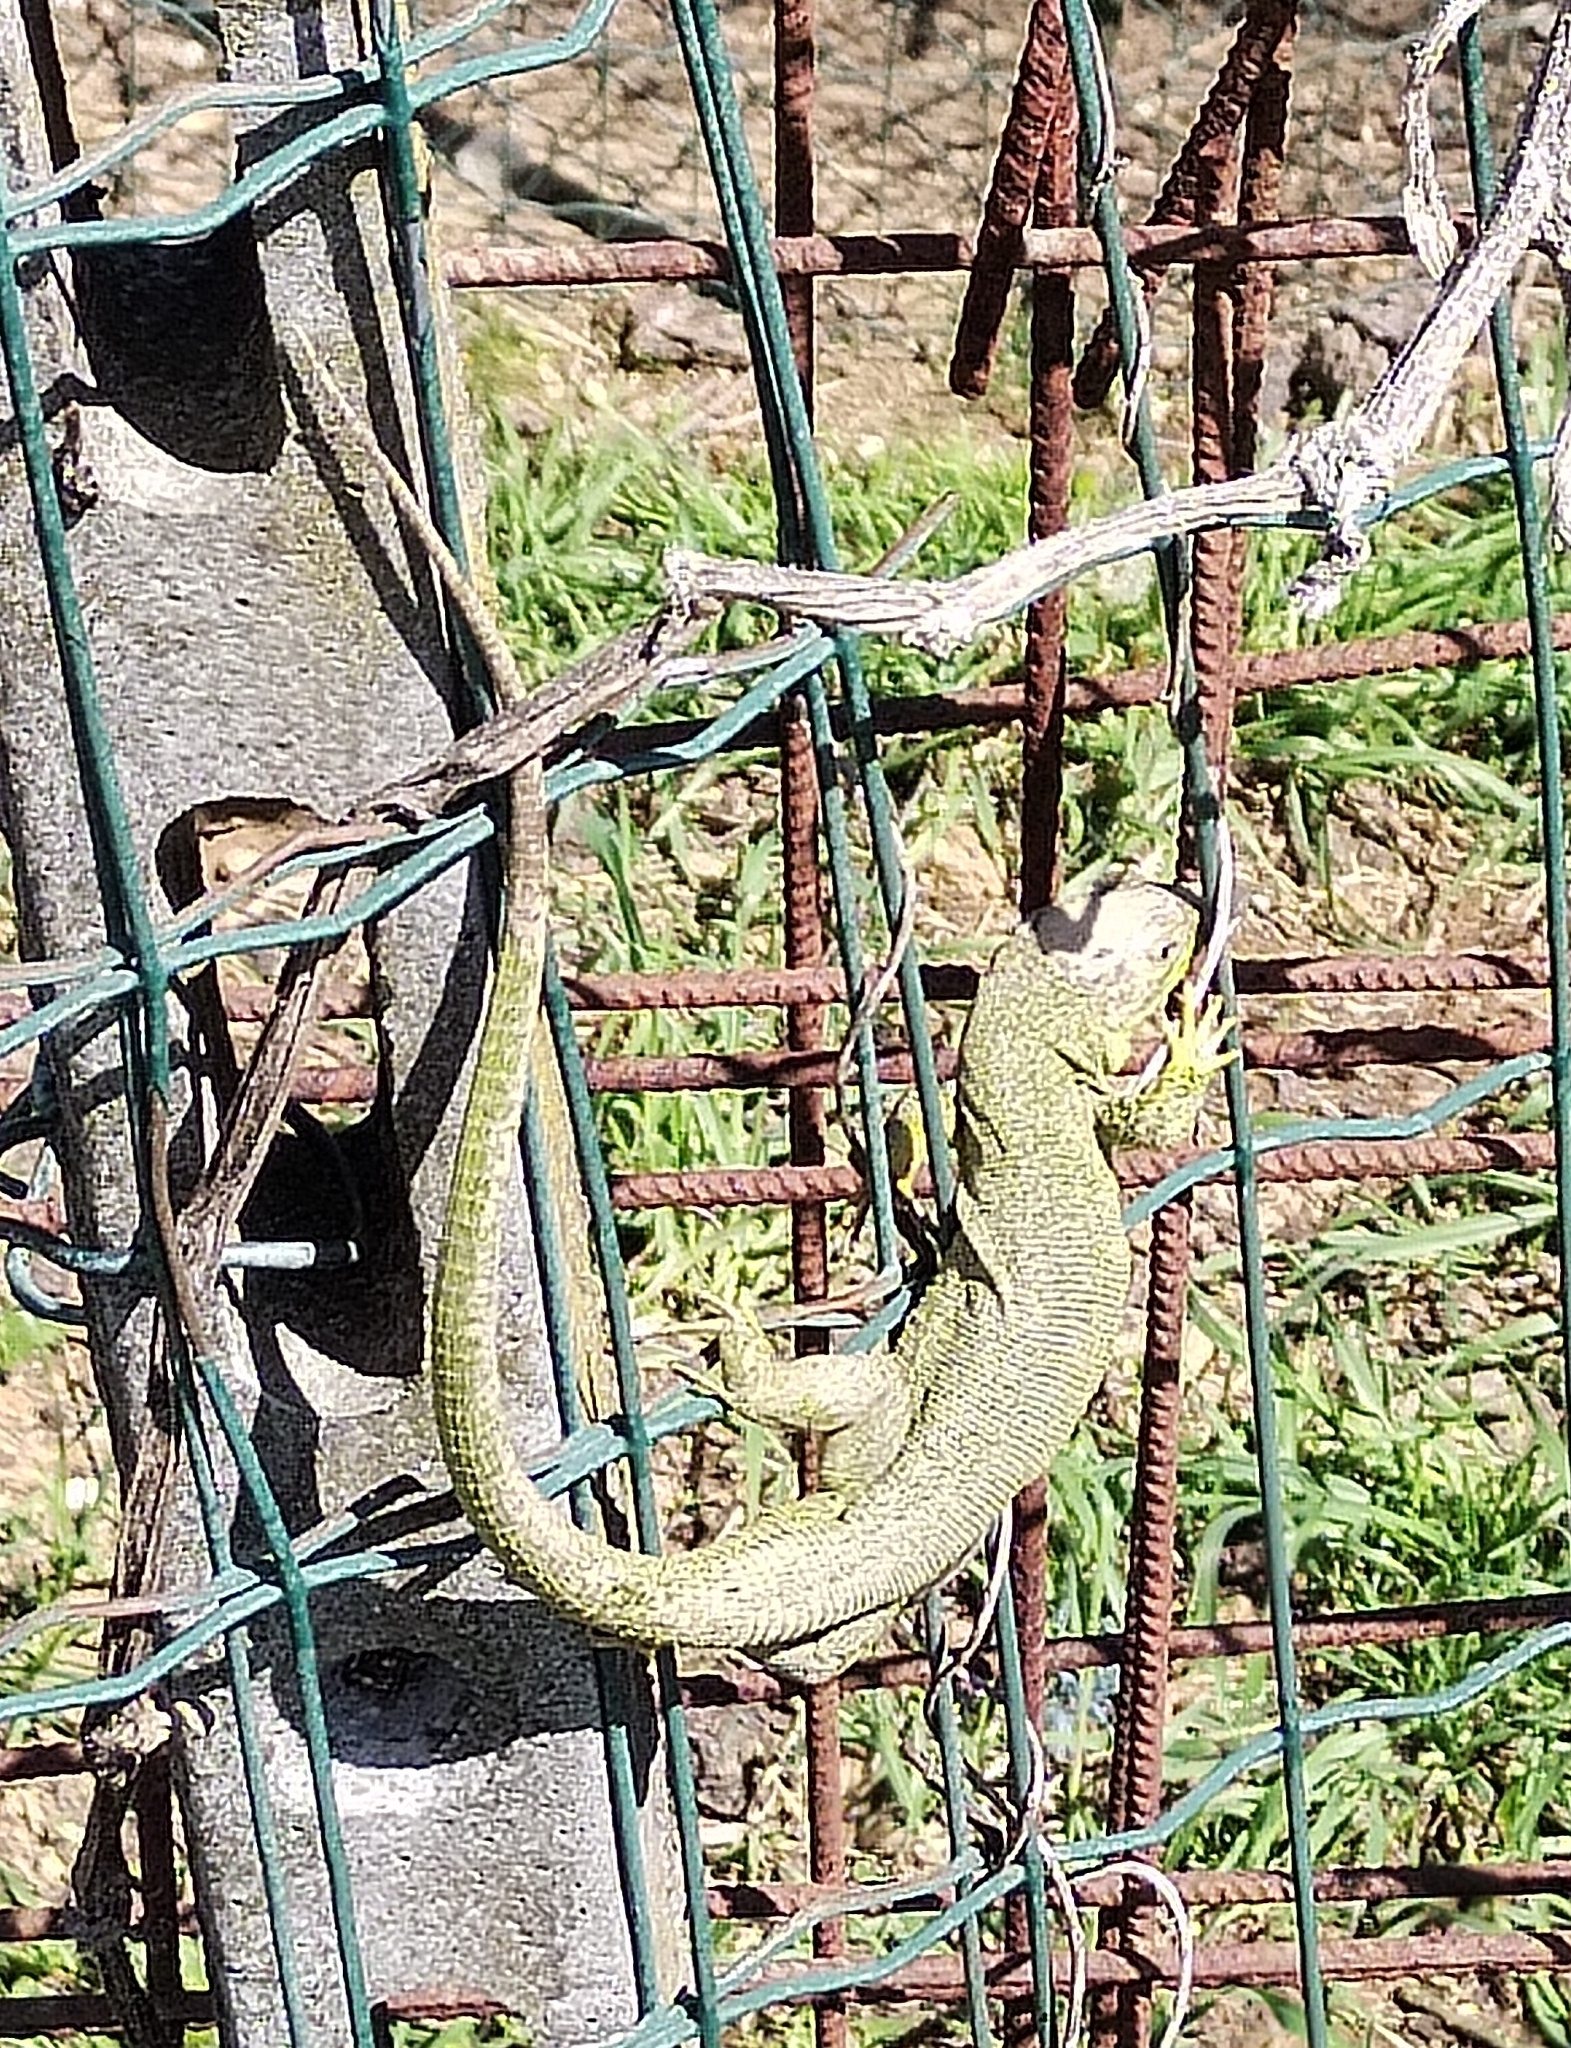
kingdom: Animalia
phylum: Chordata
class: Squamata
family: Lacertidae
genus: Lacerta
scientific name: Lacerta bilineata
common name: Western green lizard
